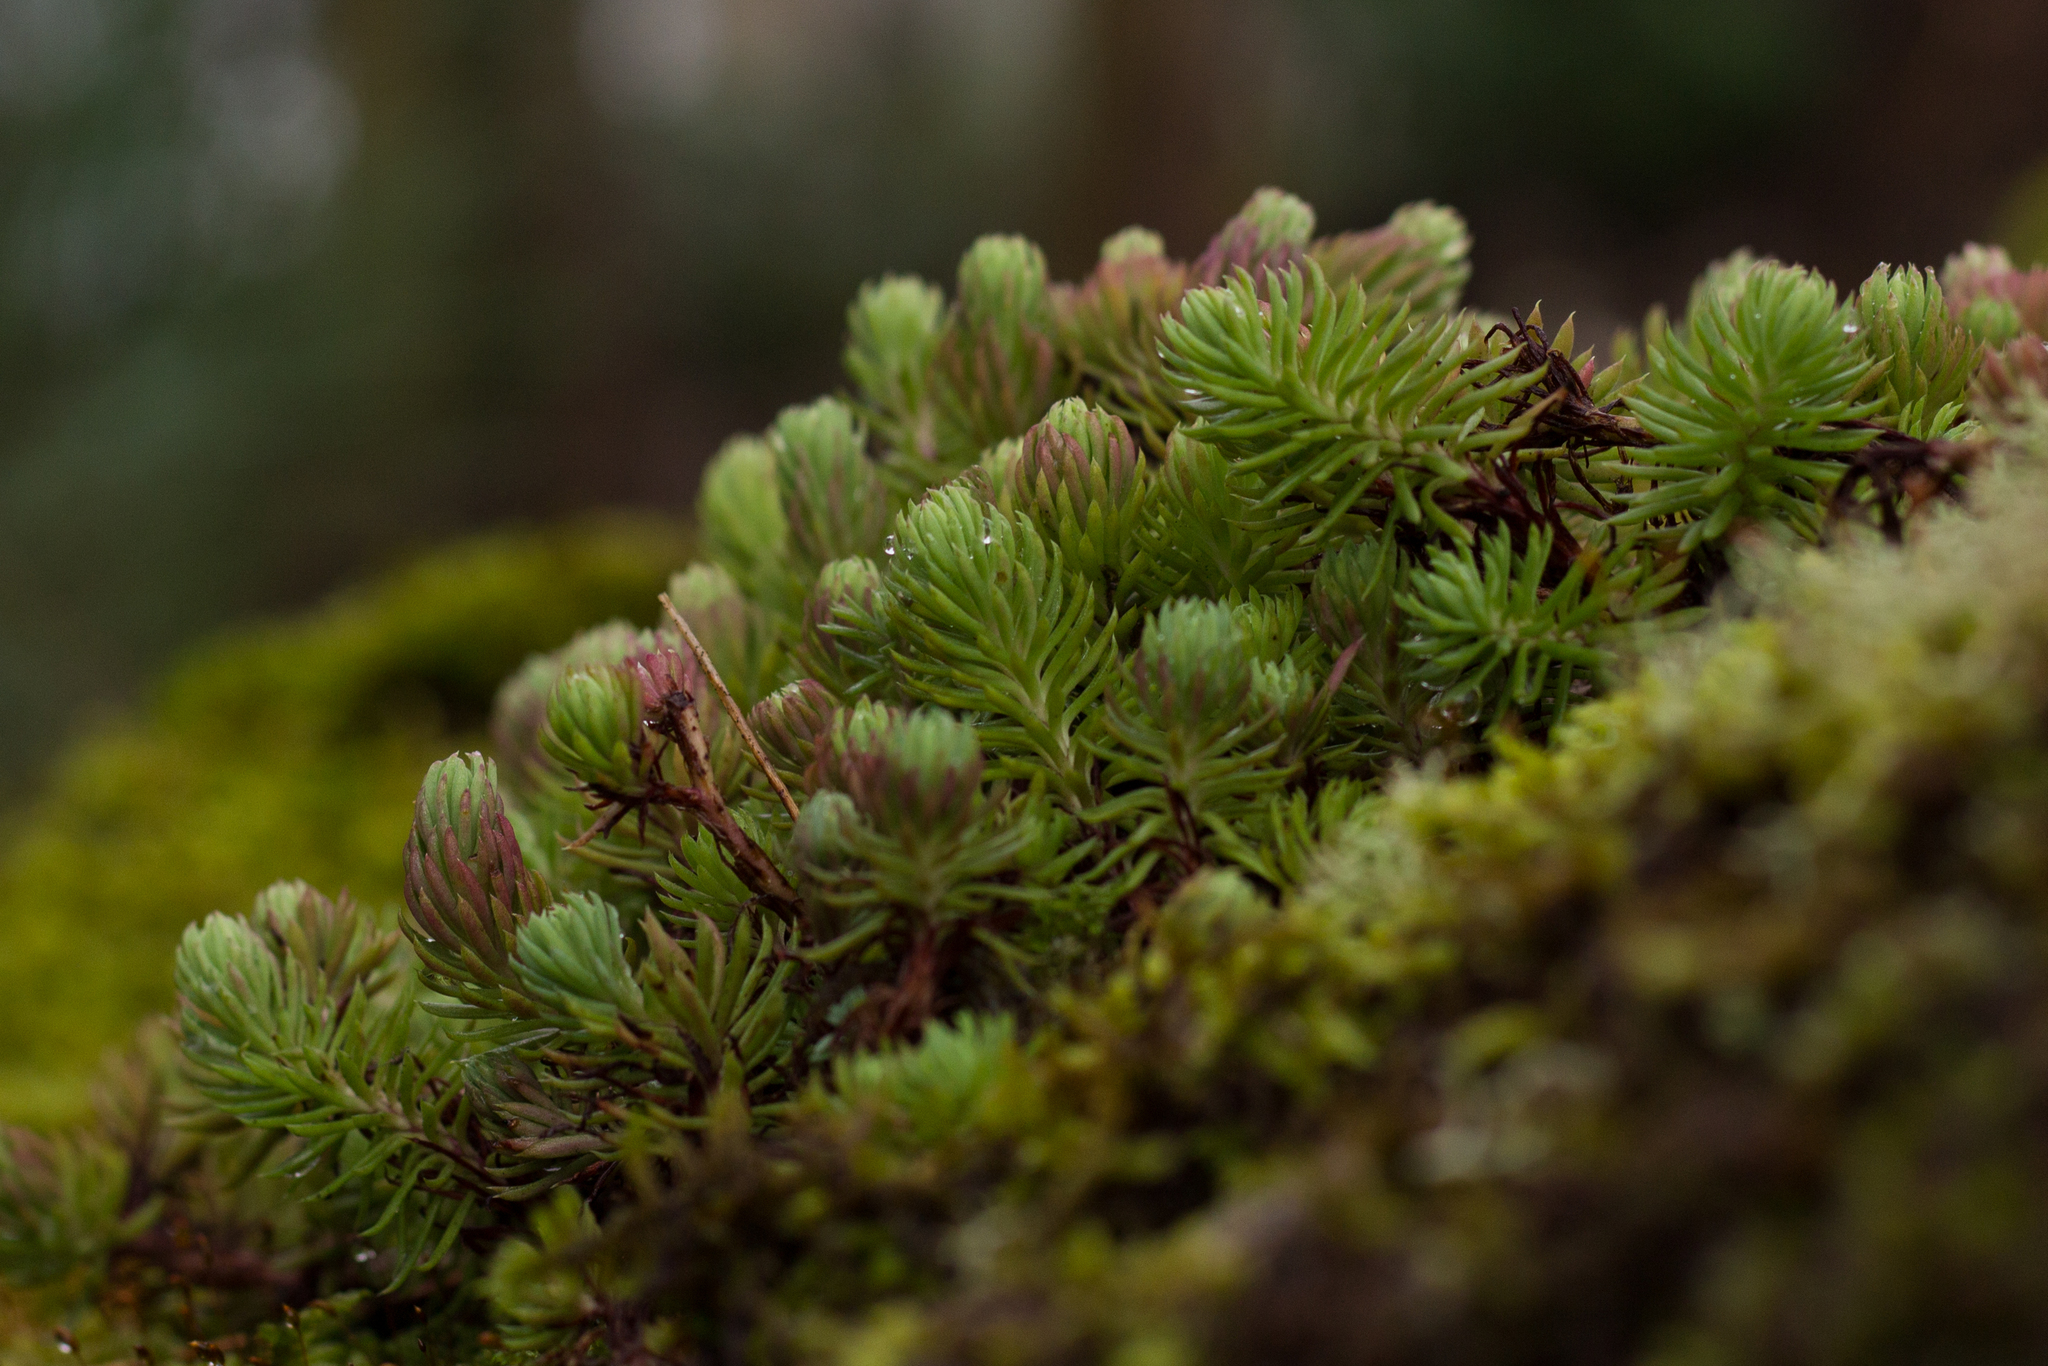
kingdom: Plantae
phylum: Tracheophyta
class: Magnoliopsida
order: Saxifragales
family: Crassulaceae
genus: Petrosedum
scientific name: Petrosedum forsterianum
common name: Forster's stonecrop
